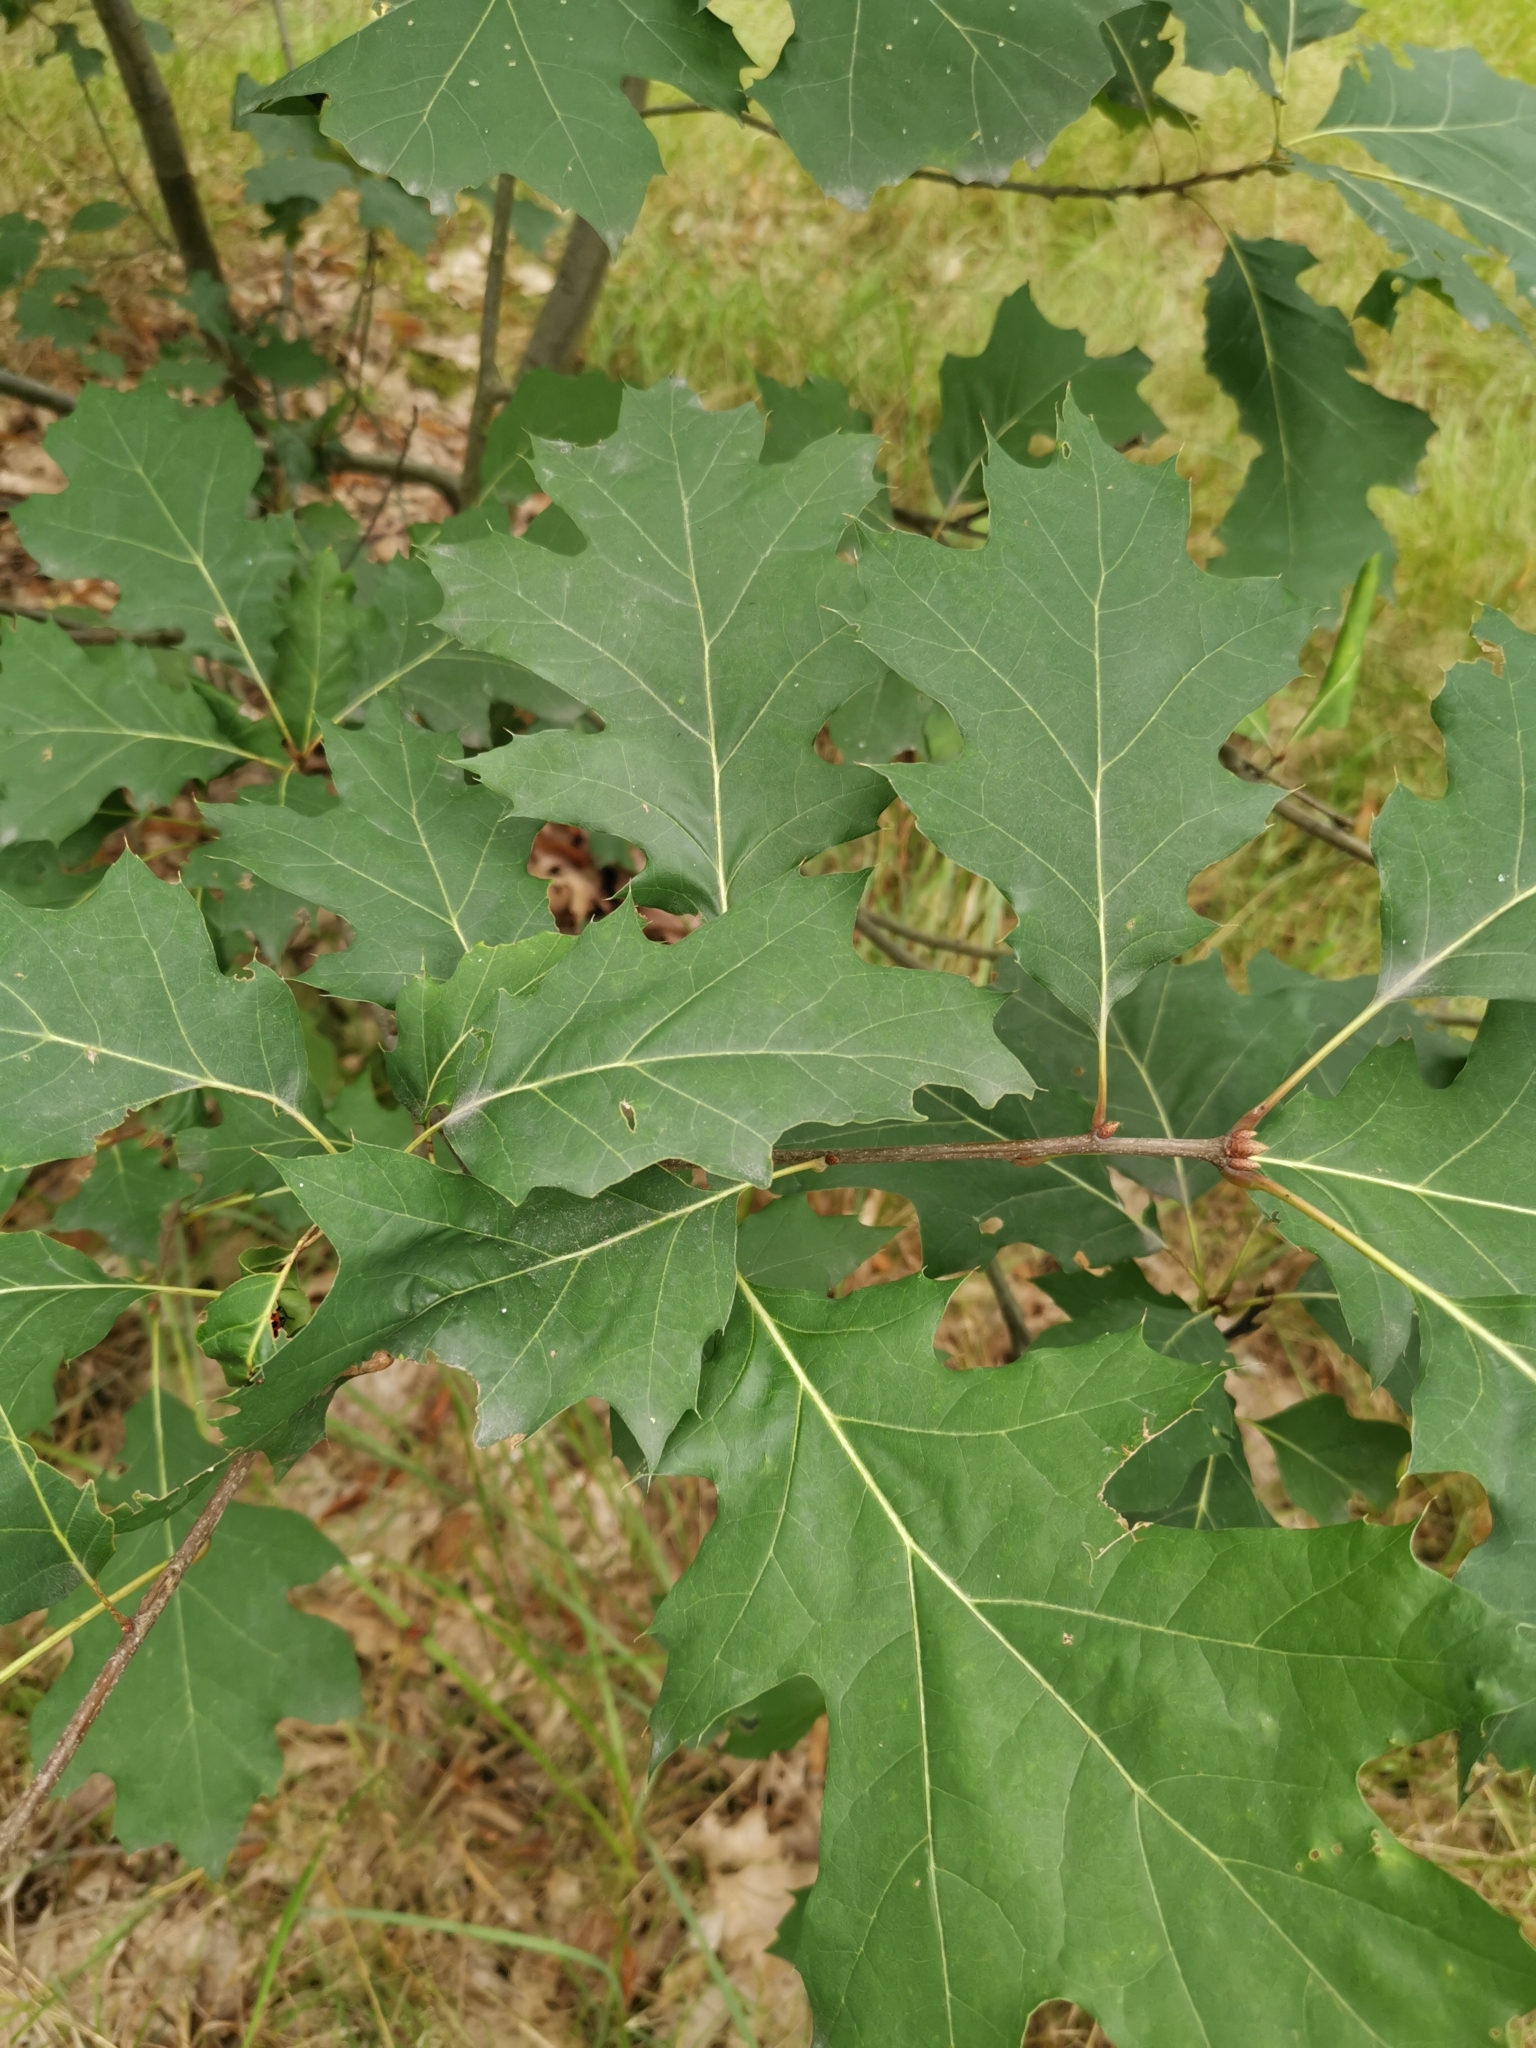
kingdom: Plantae
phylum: Tracheophyta
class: Magnoliopsida
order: Fagales
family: Fagaceae
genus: Quercus
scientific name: Quercus rubra
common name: Red oak
